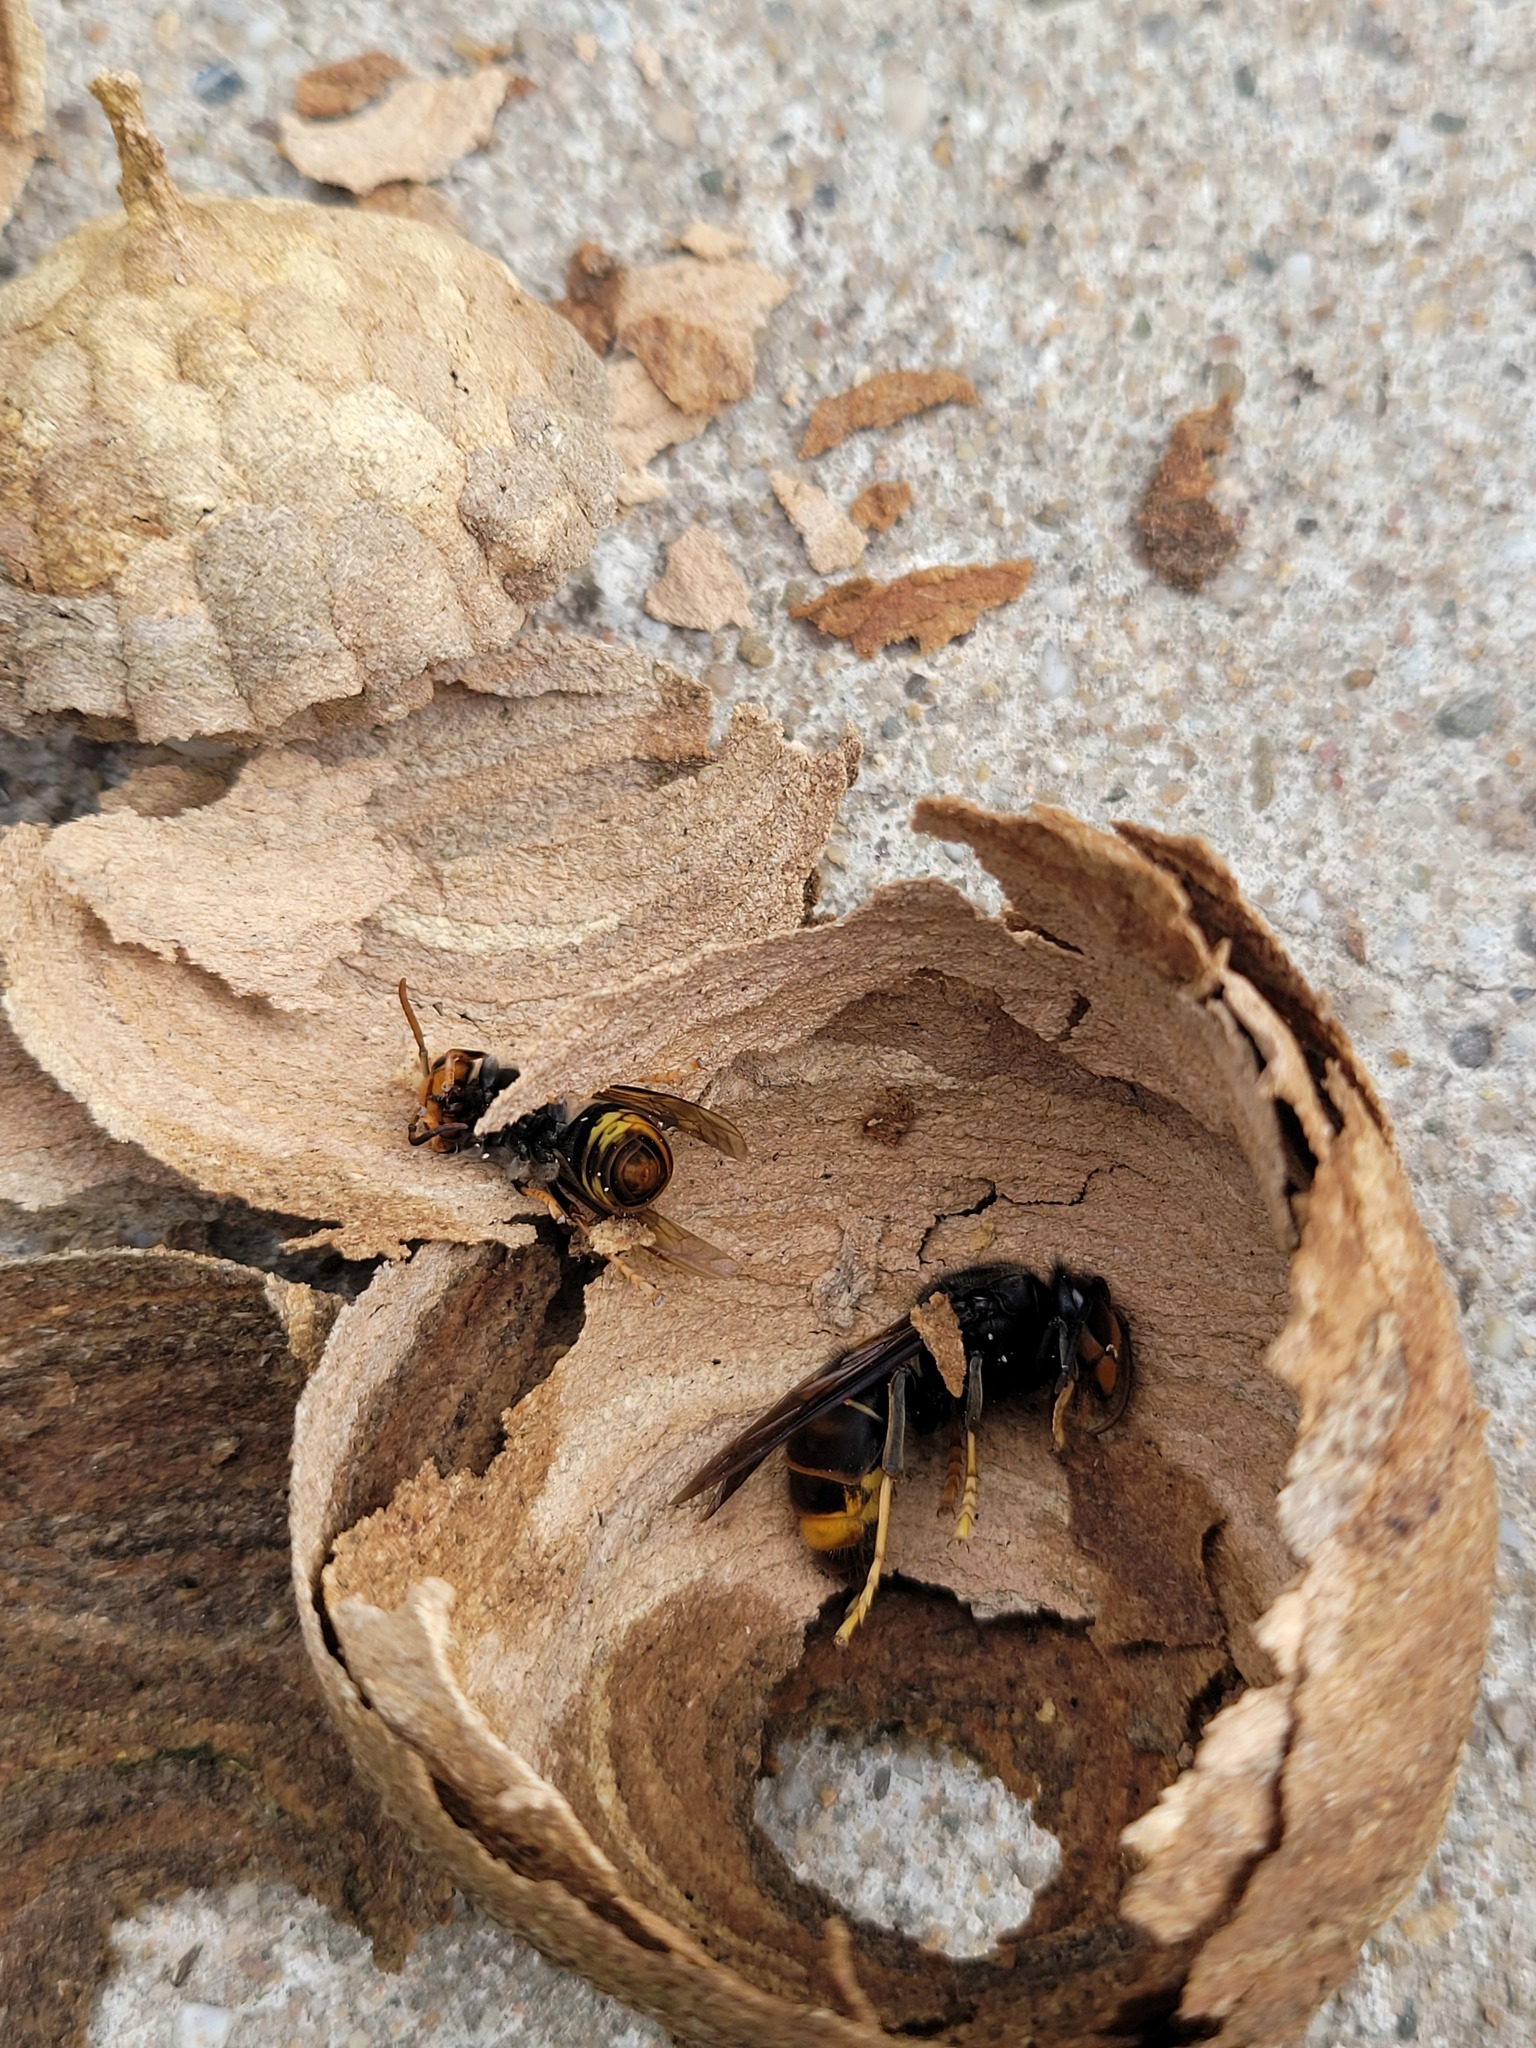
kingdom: Animalia
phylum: Arthropoda
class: Insecta
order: Hymenoptera
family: Vespidae
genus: Vespa
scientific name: Vespa velutina
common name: Asian hornet
